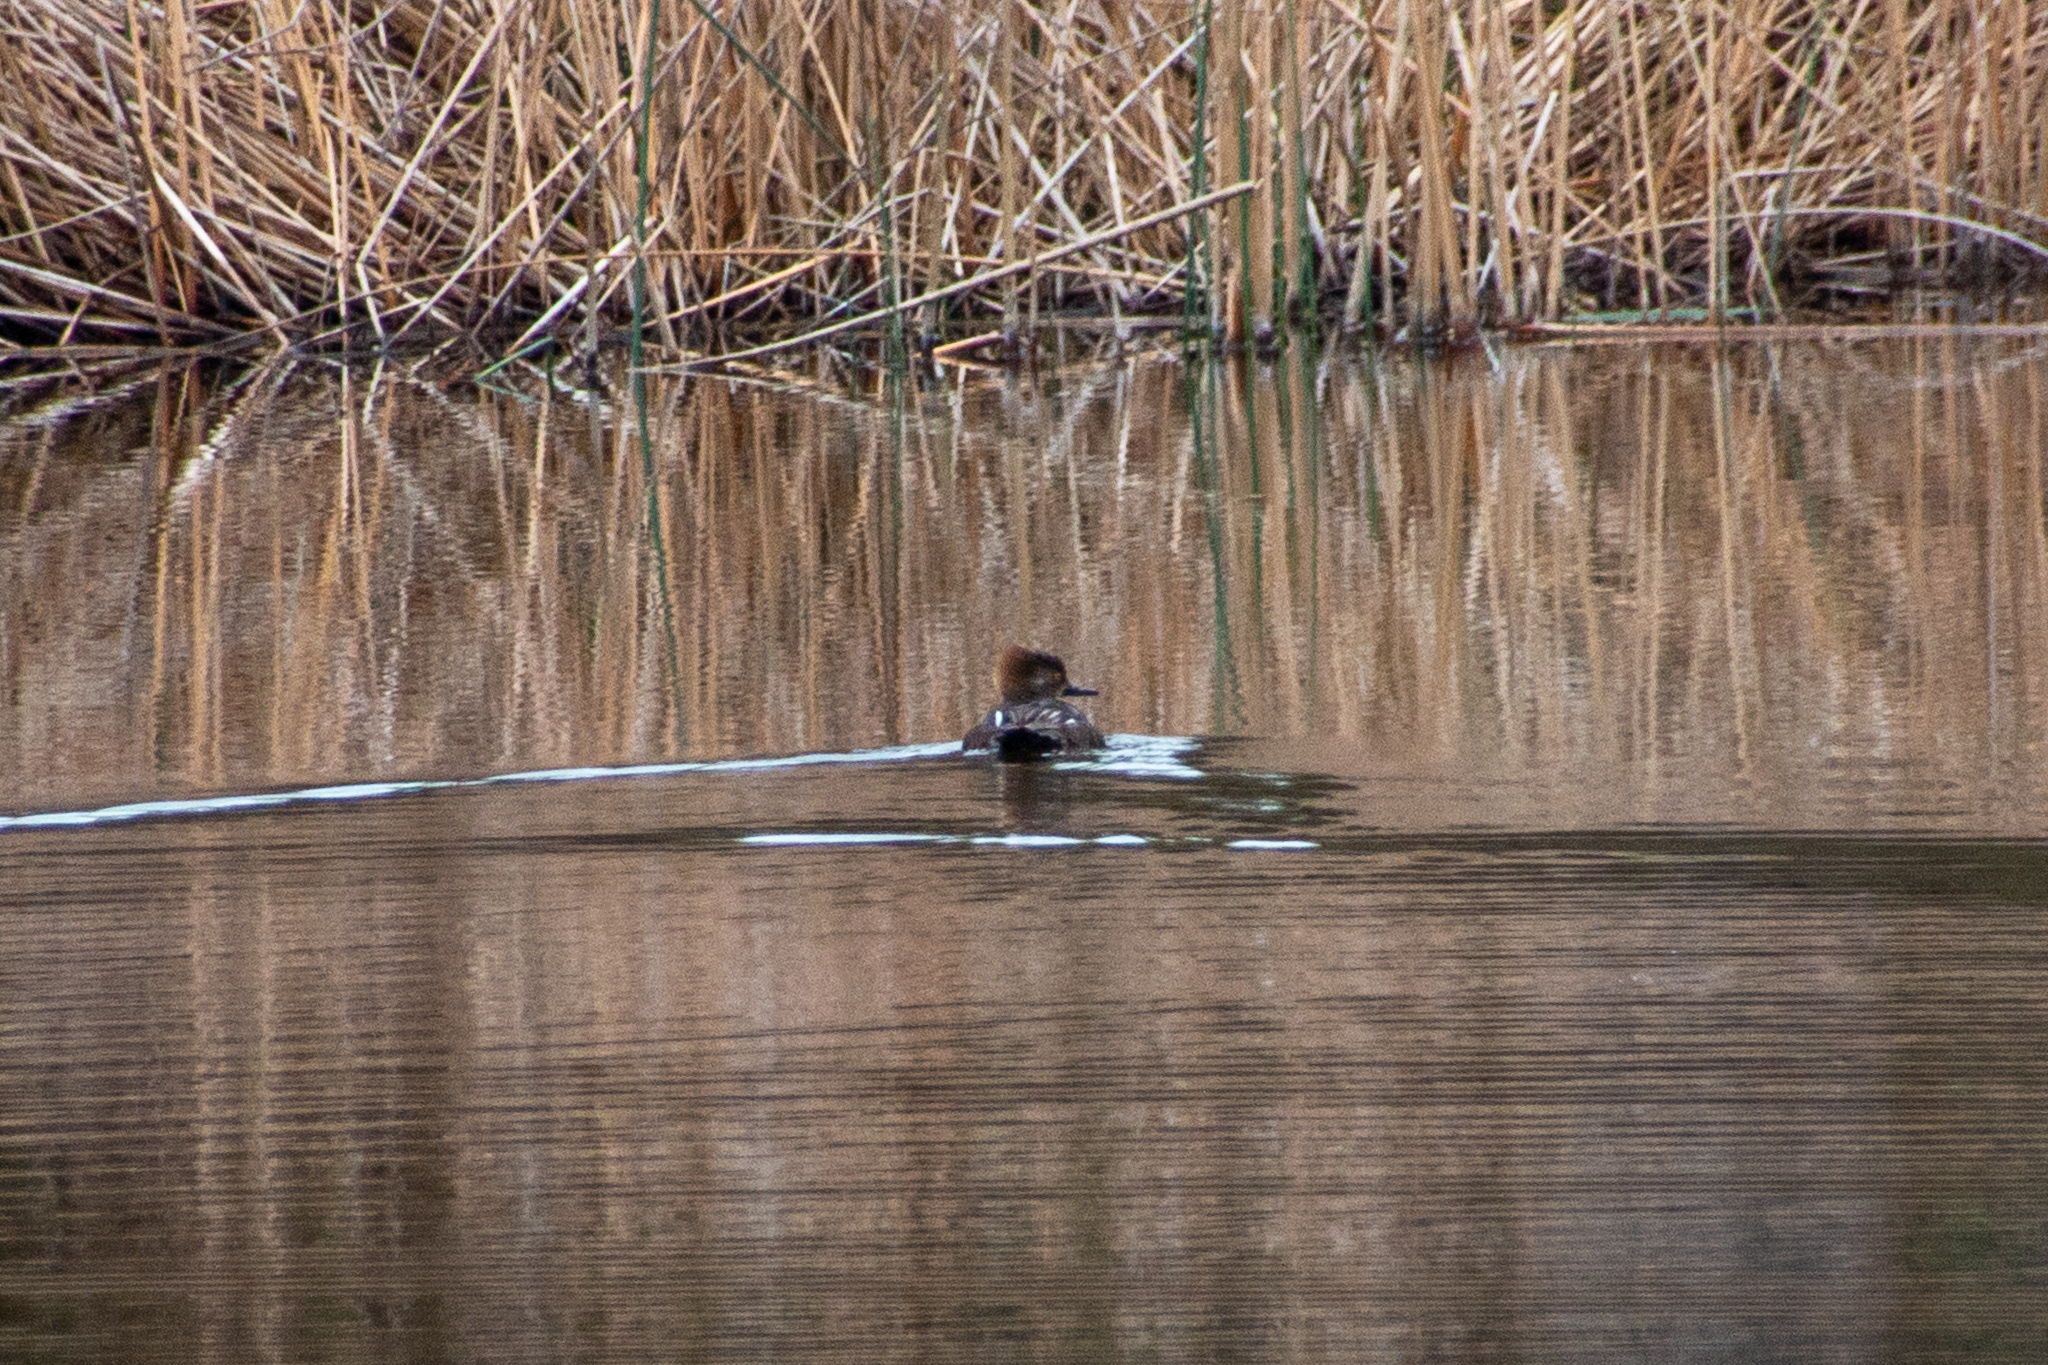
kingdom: Animalia
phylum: Chordata
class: Aves
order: Anseriformes
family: Anatidae
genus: Lophodytes
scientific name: Lophodytes cucullatus
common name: Hooded merganser
